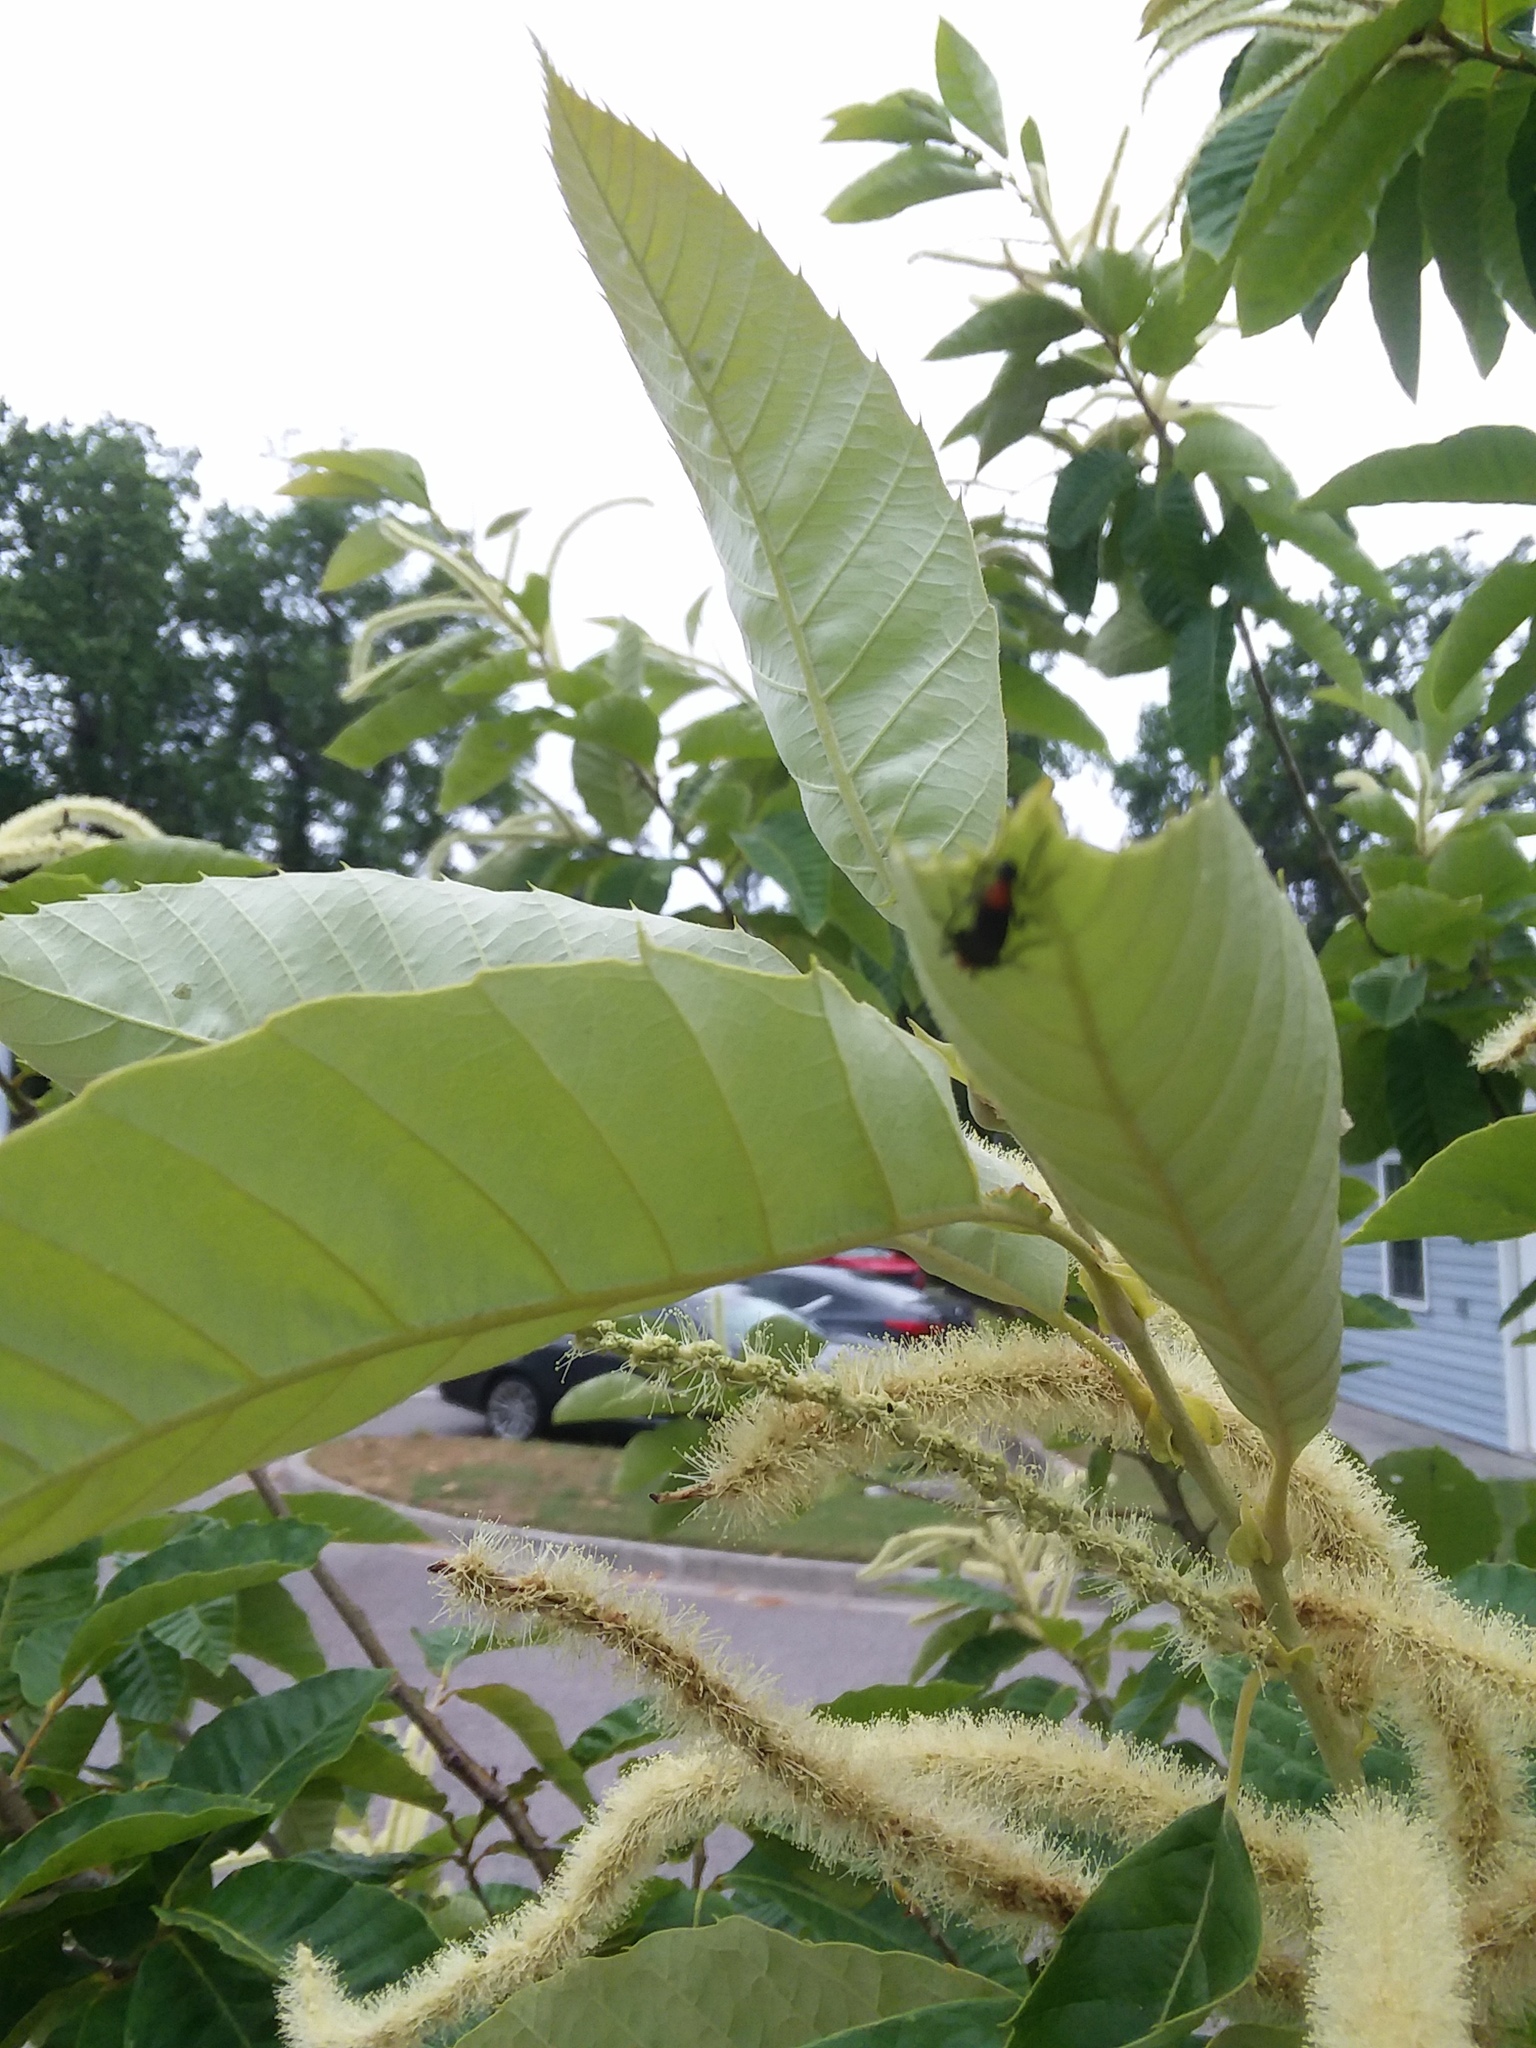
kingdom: Animalia
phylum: Arthropoda
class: Insecta
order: Diptera
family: Bibionidae
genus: Plecia
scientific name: Plecia nearctica
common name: March fly
